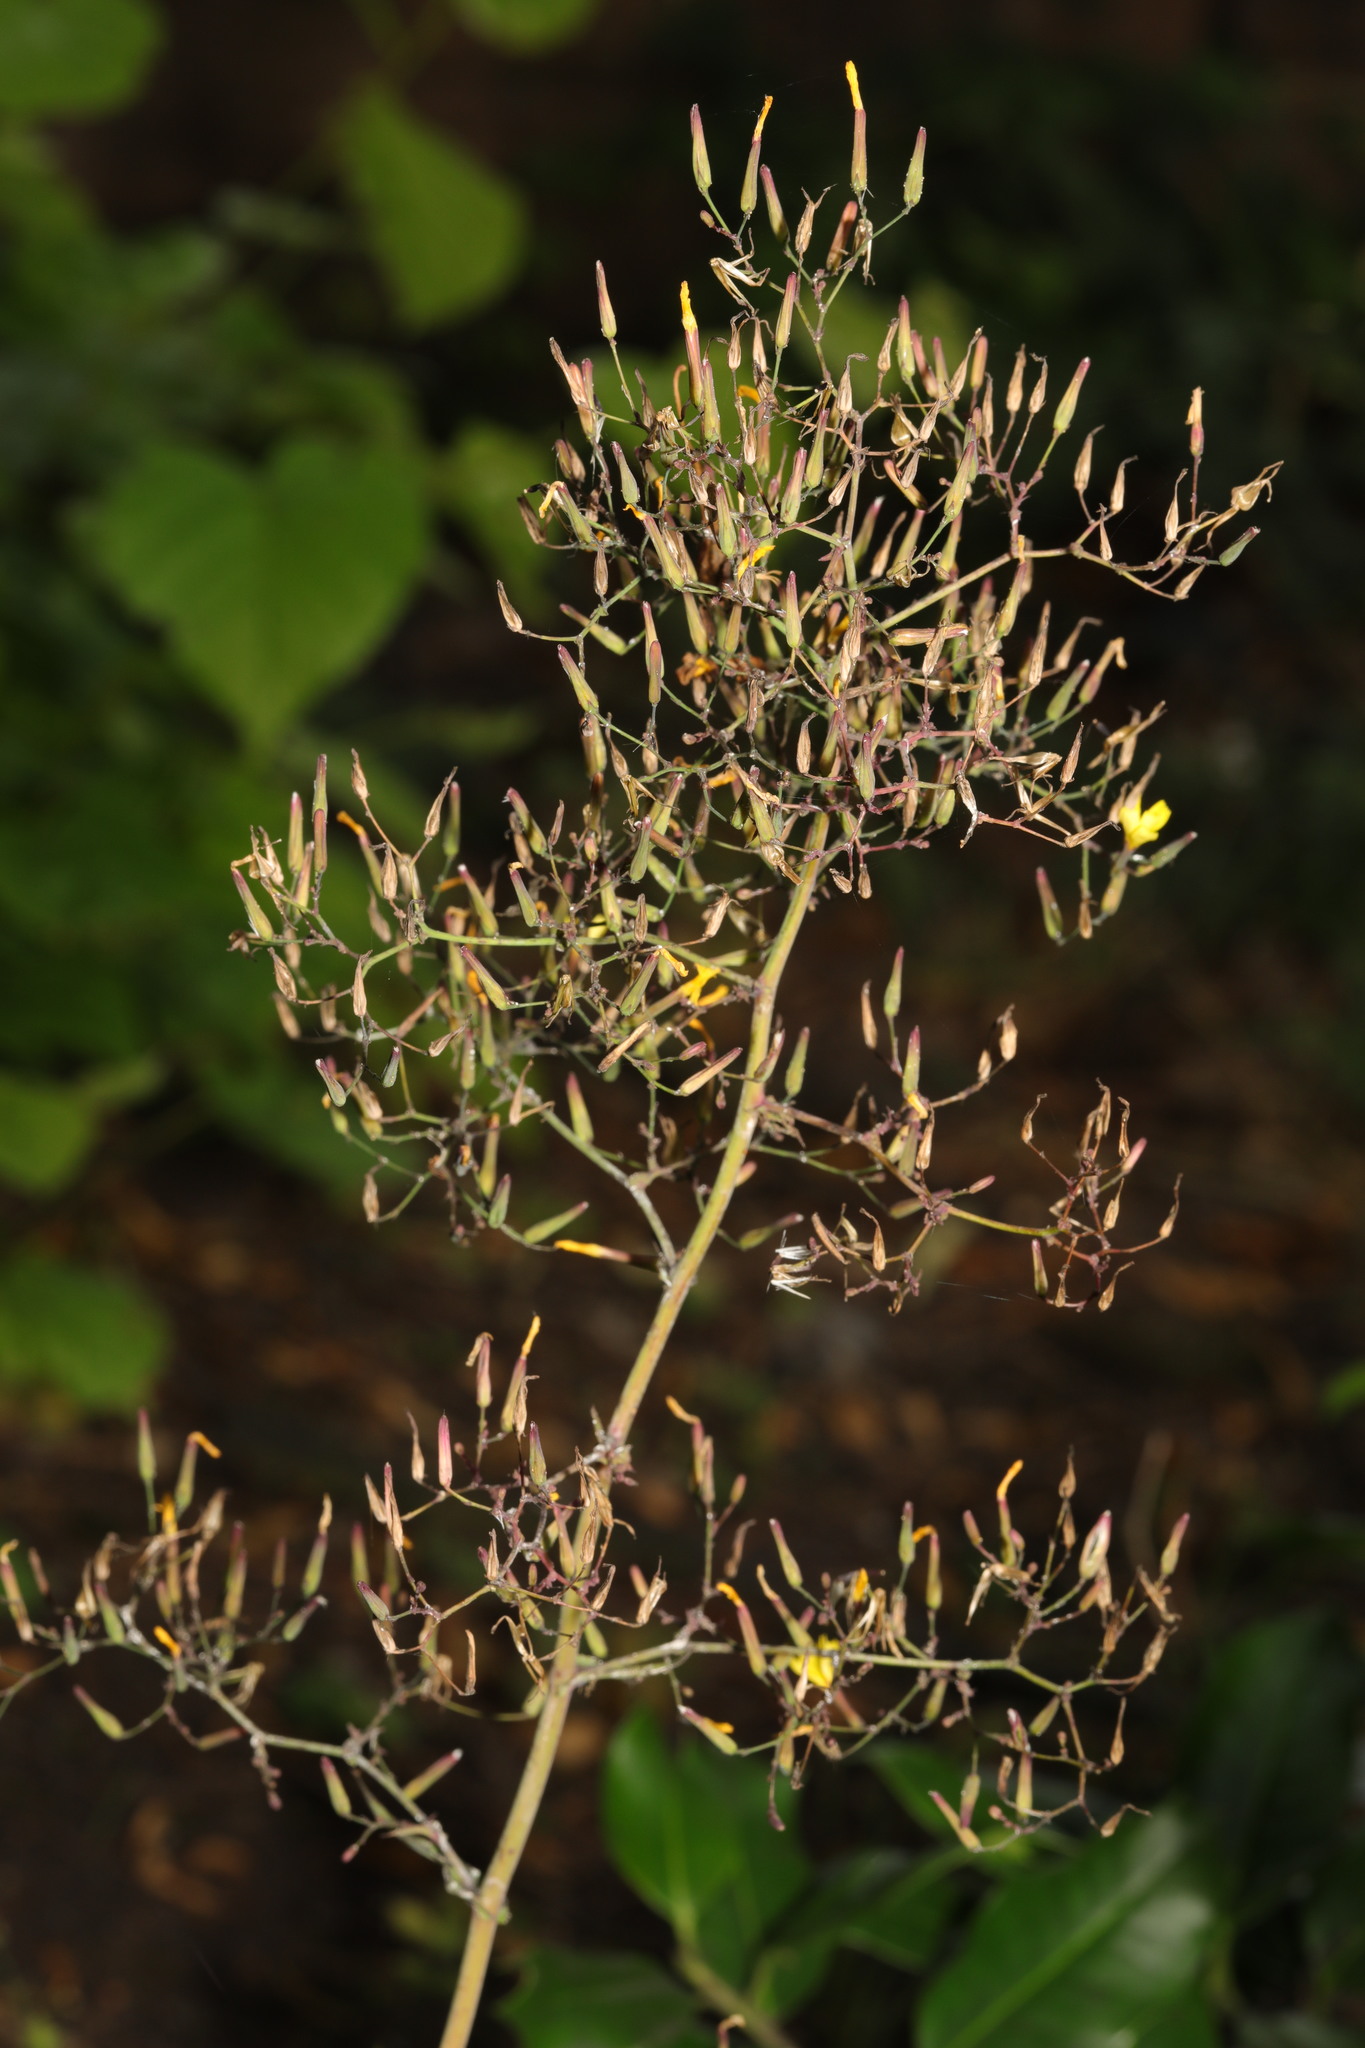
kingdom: Plantae
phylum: Tracheophyta
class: Magnoliopsida
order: Asterales
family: Asteraceae
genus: Mycelis
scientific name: Mycelis muralis
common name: Wall lettuce
